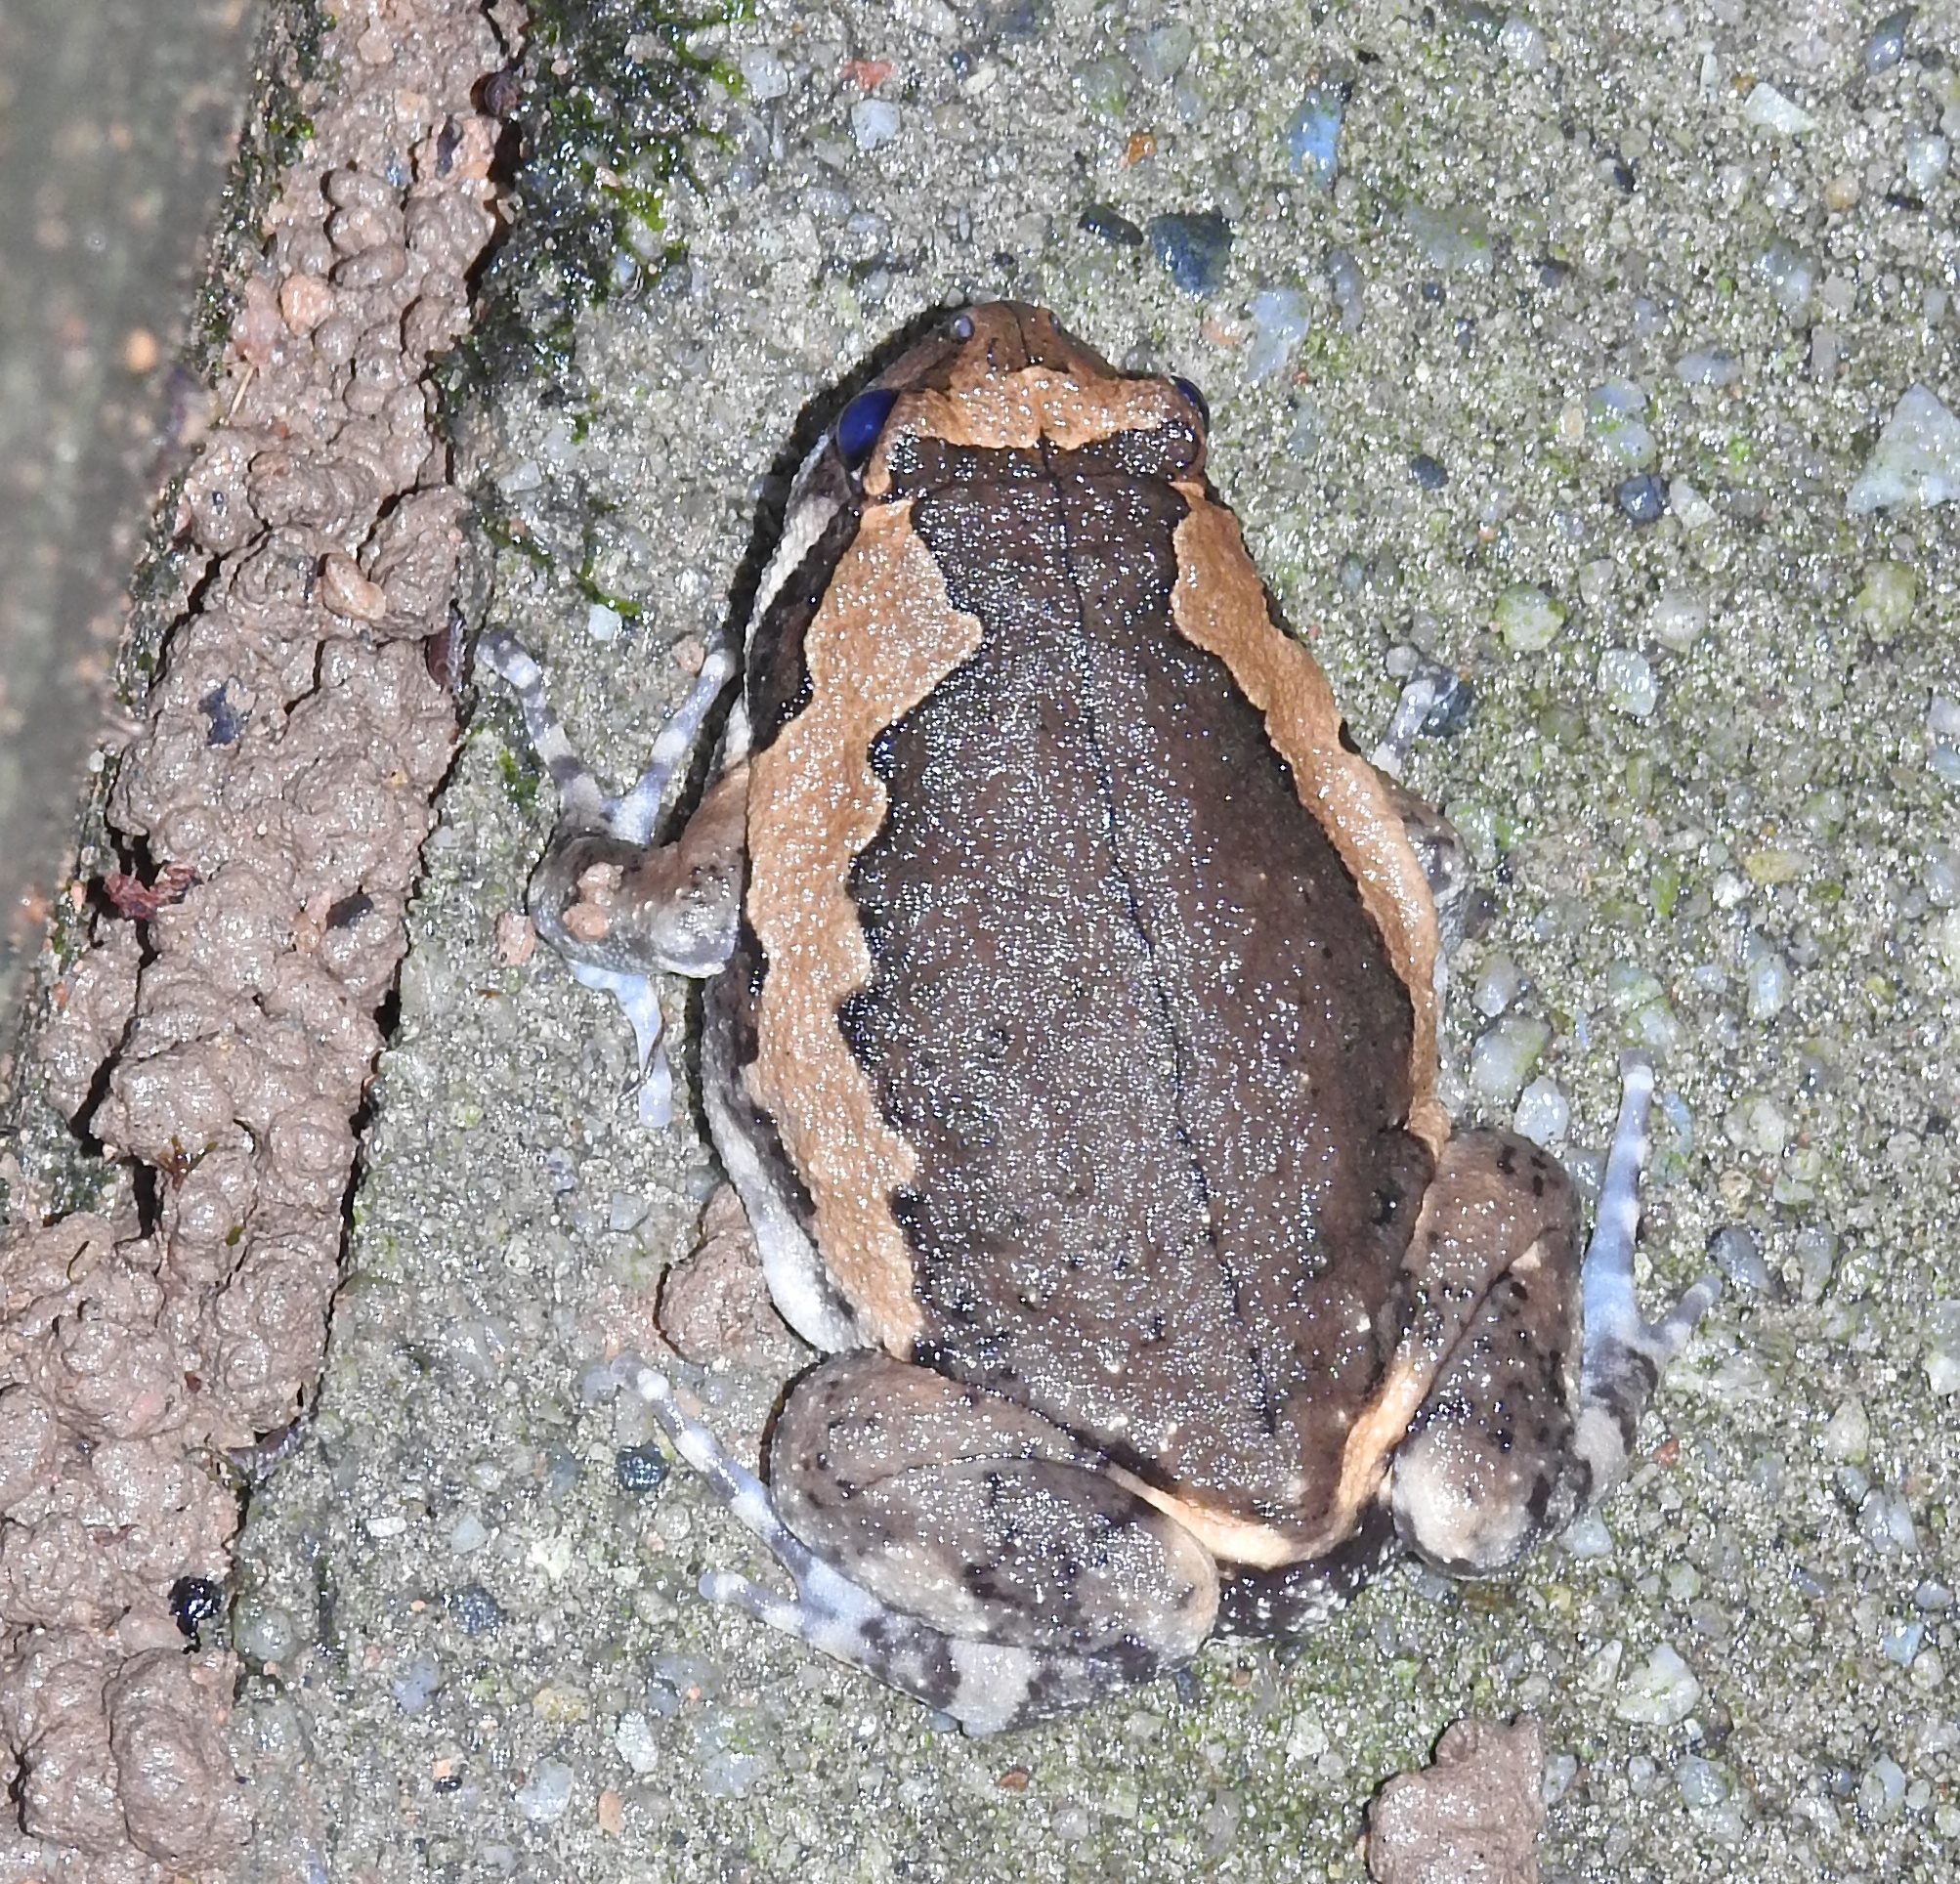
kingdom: Animalia
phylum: Chordata
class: Amphibia
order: Anura
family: Microhylidae
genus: Kaloula
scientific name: Kaloula pulchra
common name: Common,banded bullfrog
